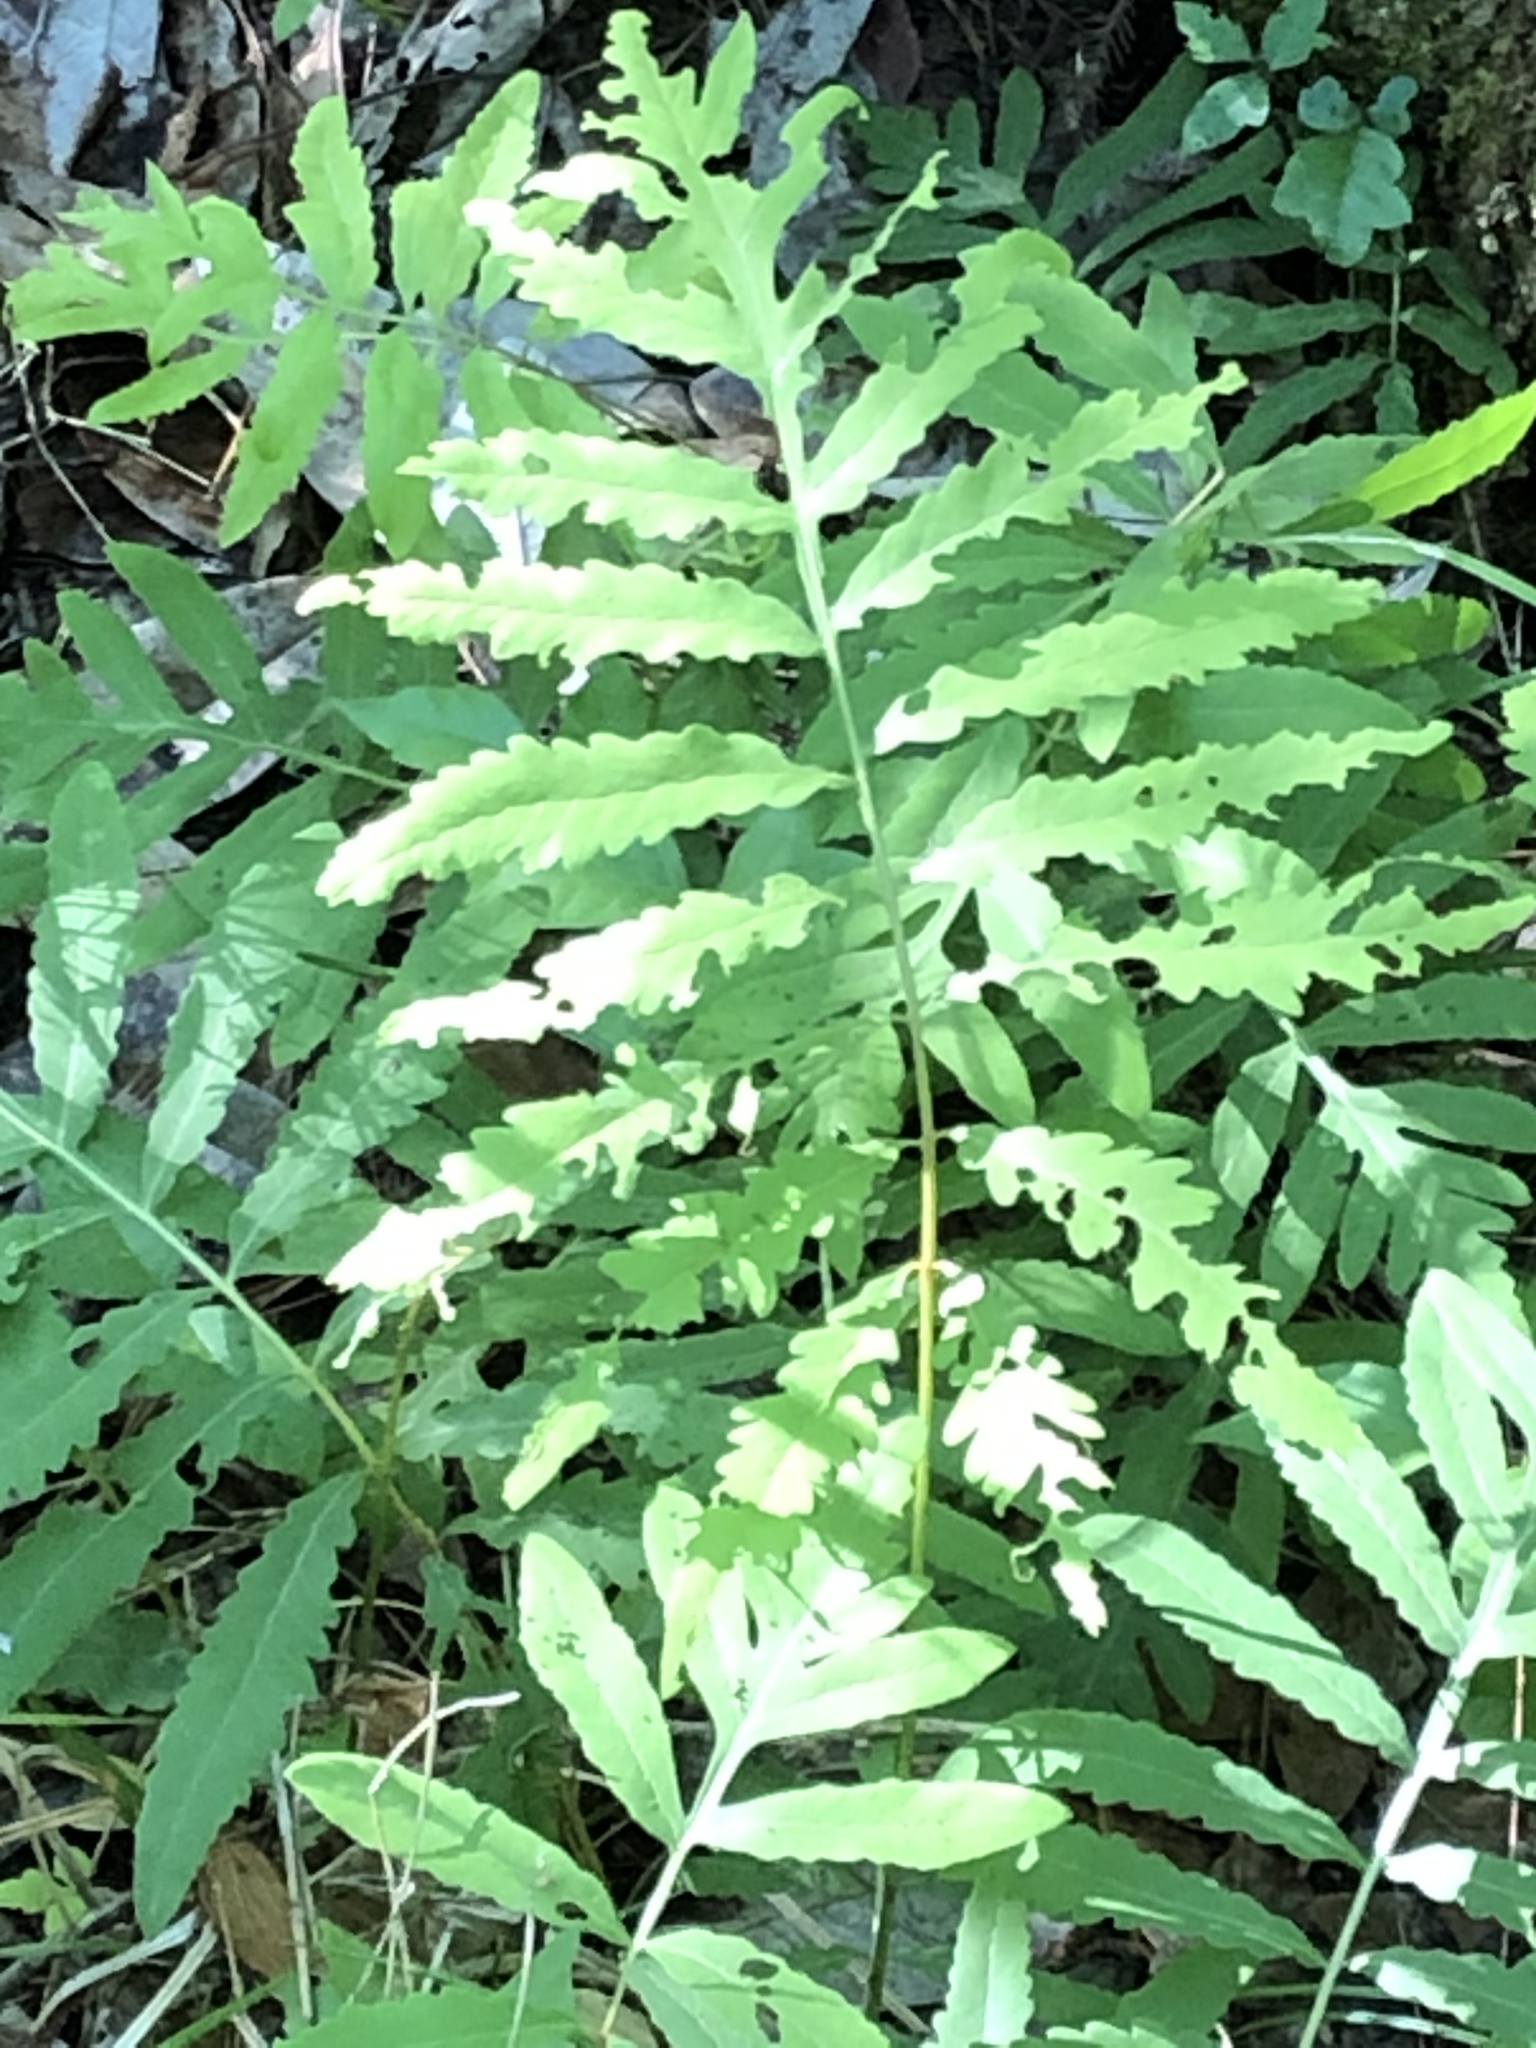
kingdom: Plantae
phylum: Tracheophyta
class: Polypodiopsida
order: Polypodiales
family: Onocleaceae
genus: Onoclea
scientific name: Onoclea sensibilis
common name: Sensitive fern
